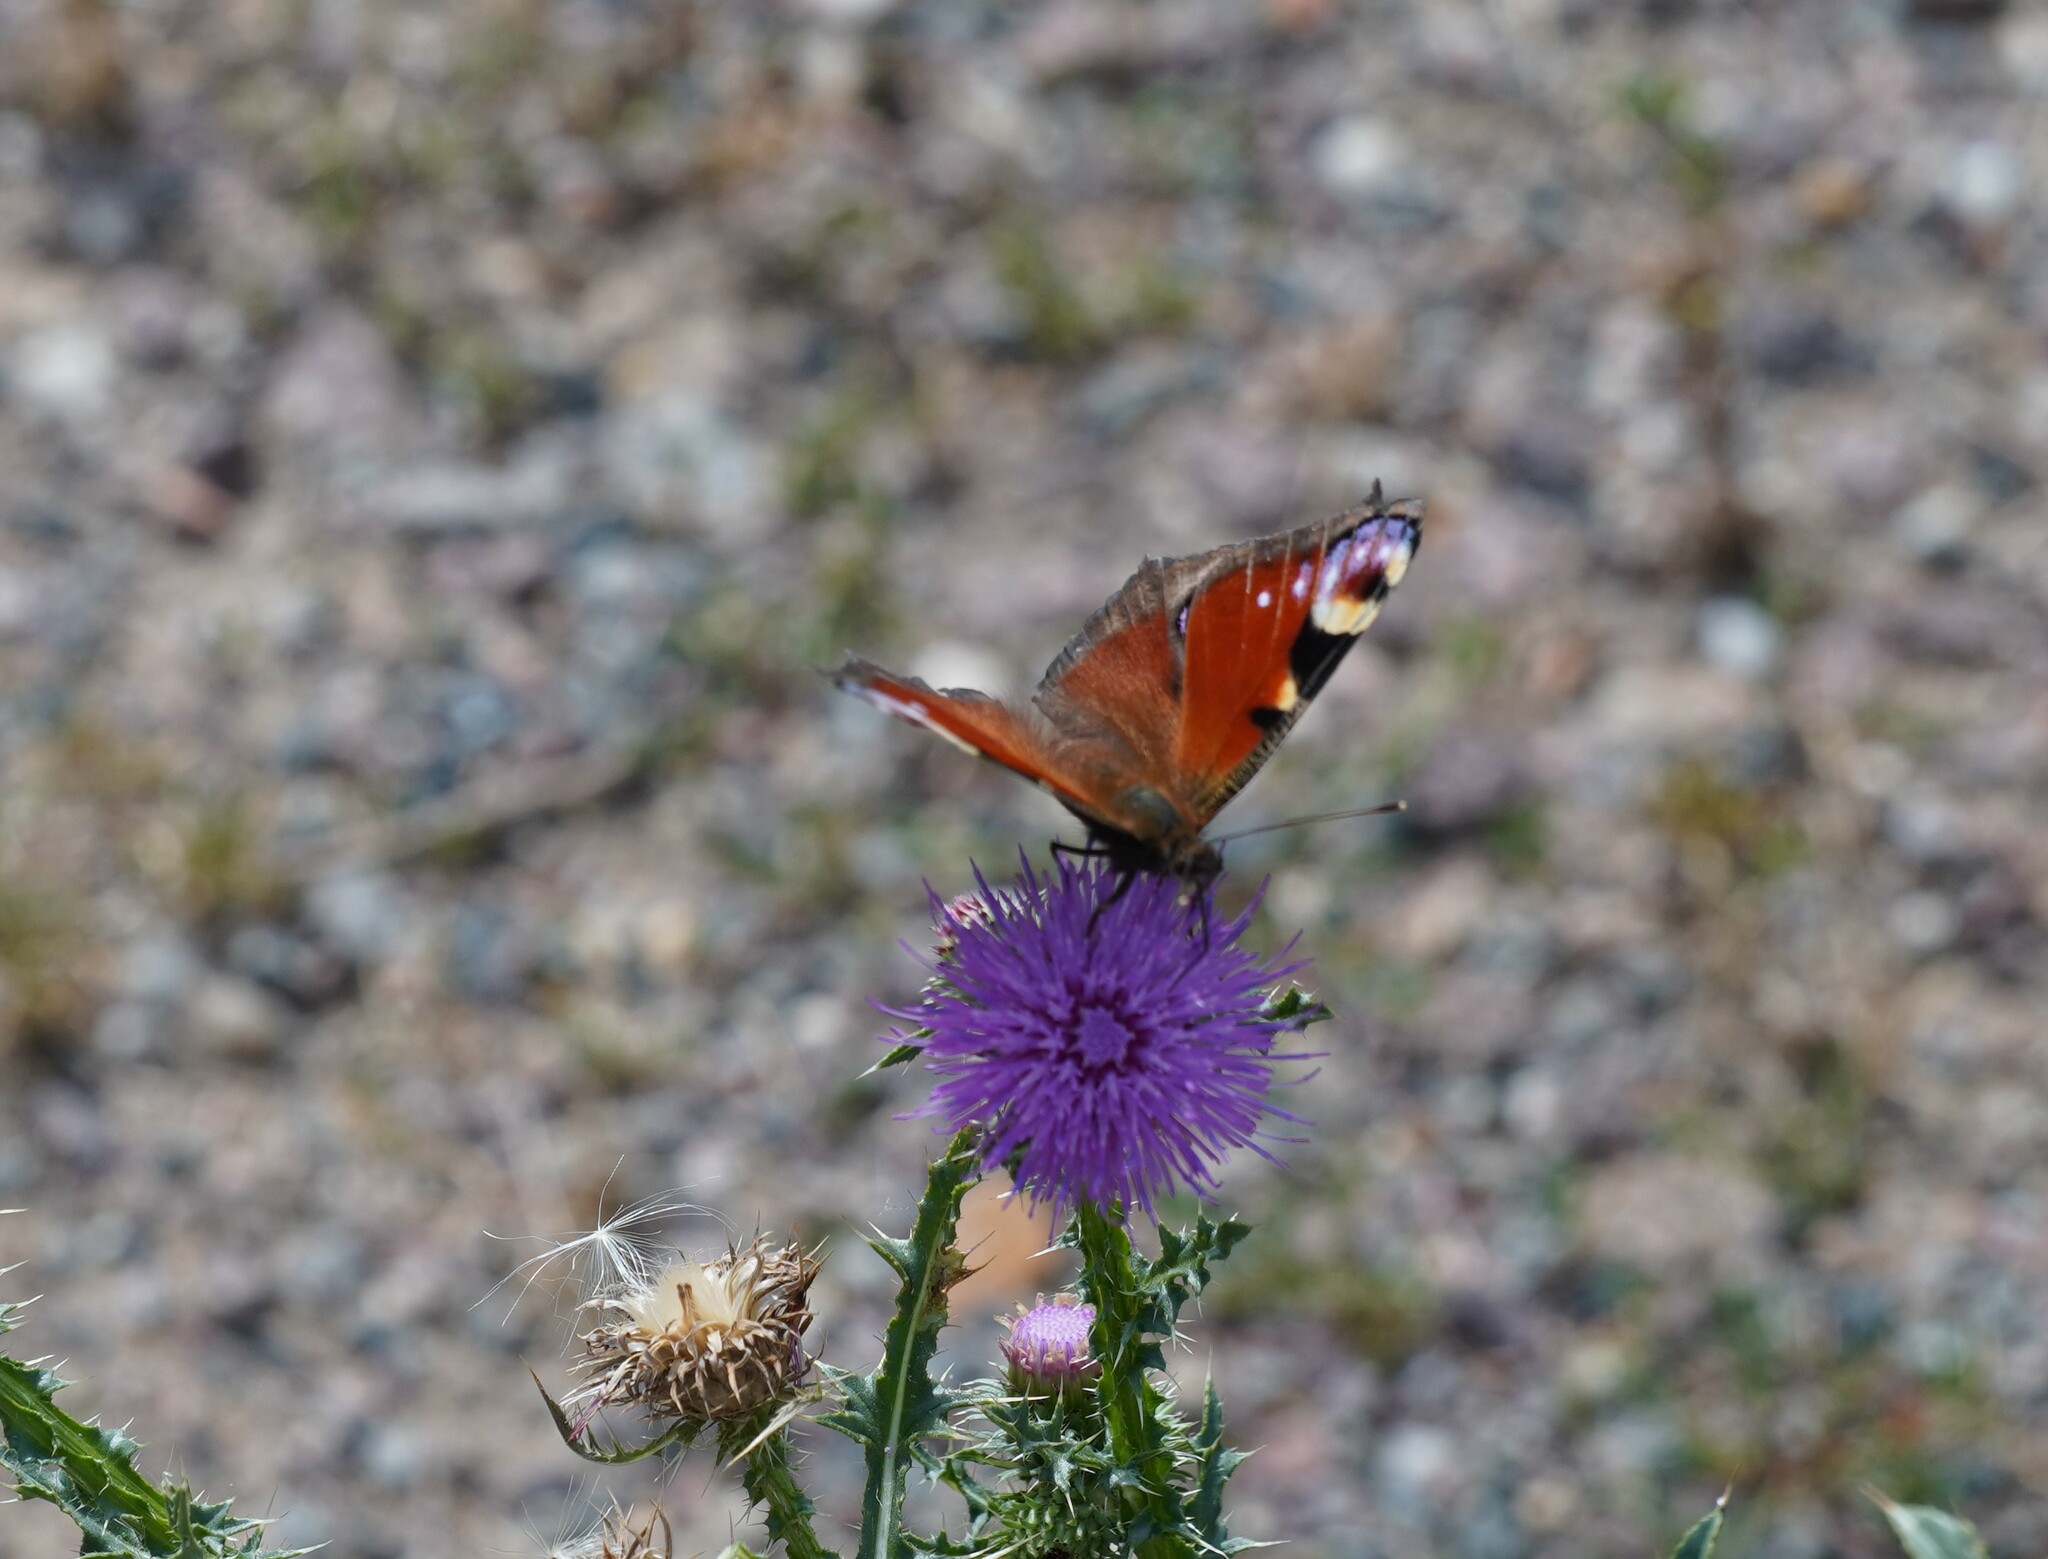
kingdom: Animalia
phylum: Arthropoda
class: Insecta
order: Lepidoptera
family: Nymphalidae
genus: Aglais
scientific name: Aglais io
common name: Peacock
